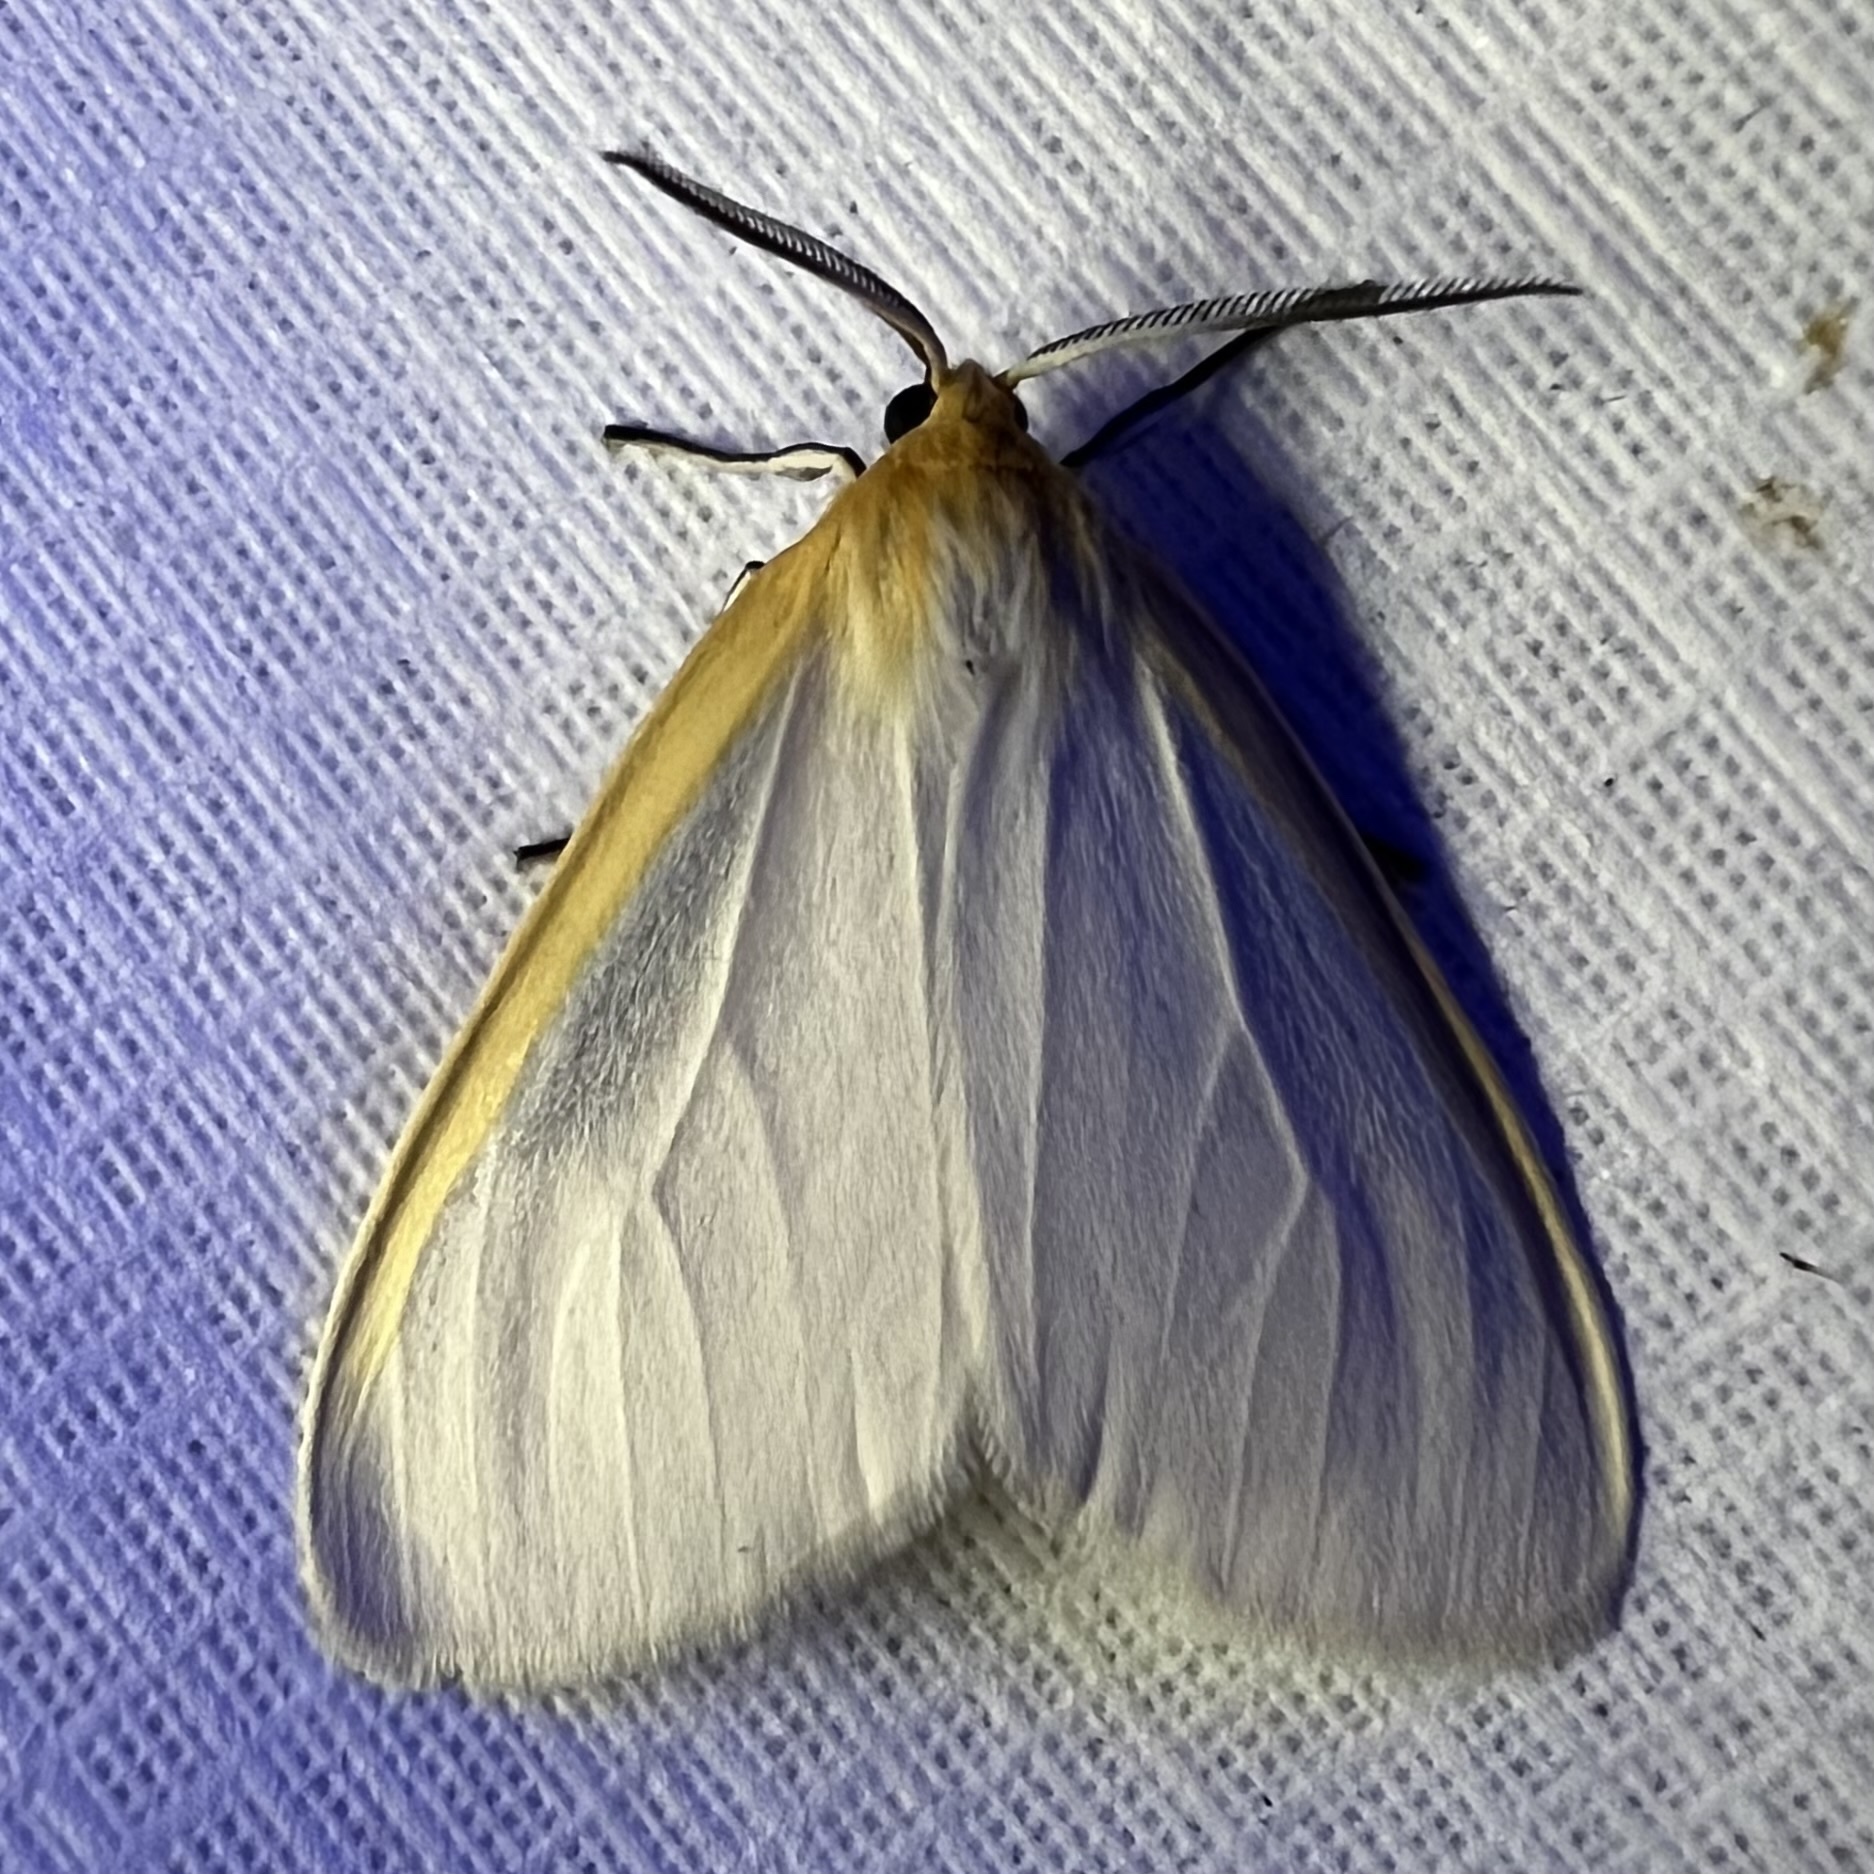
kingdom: Animalia
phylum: Arthropoda
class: Insecta
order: Lepidoptera
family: Erebidae
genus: Cycnia
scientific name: Cycnia tenera
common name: Delicate cycnia moth
